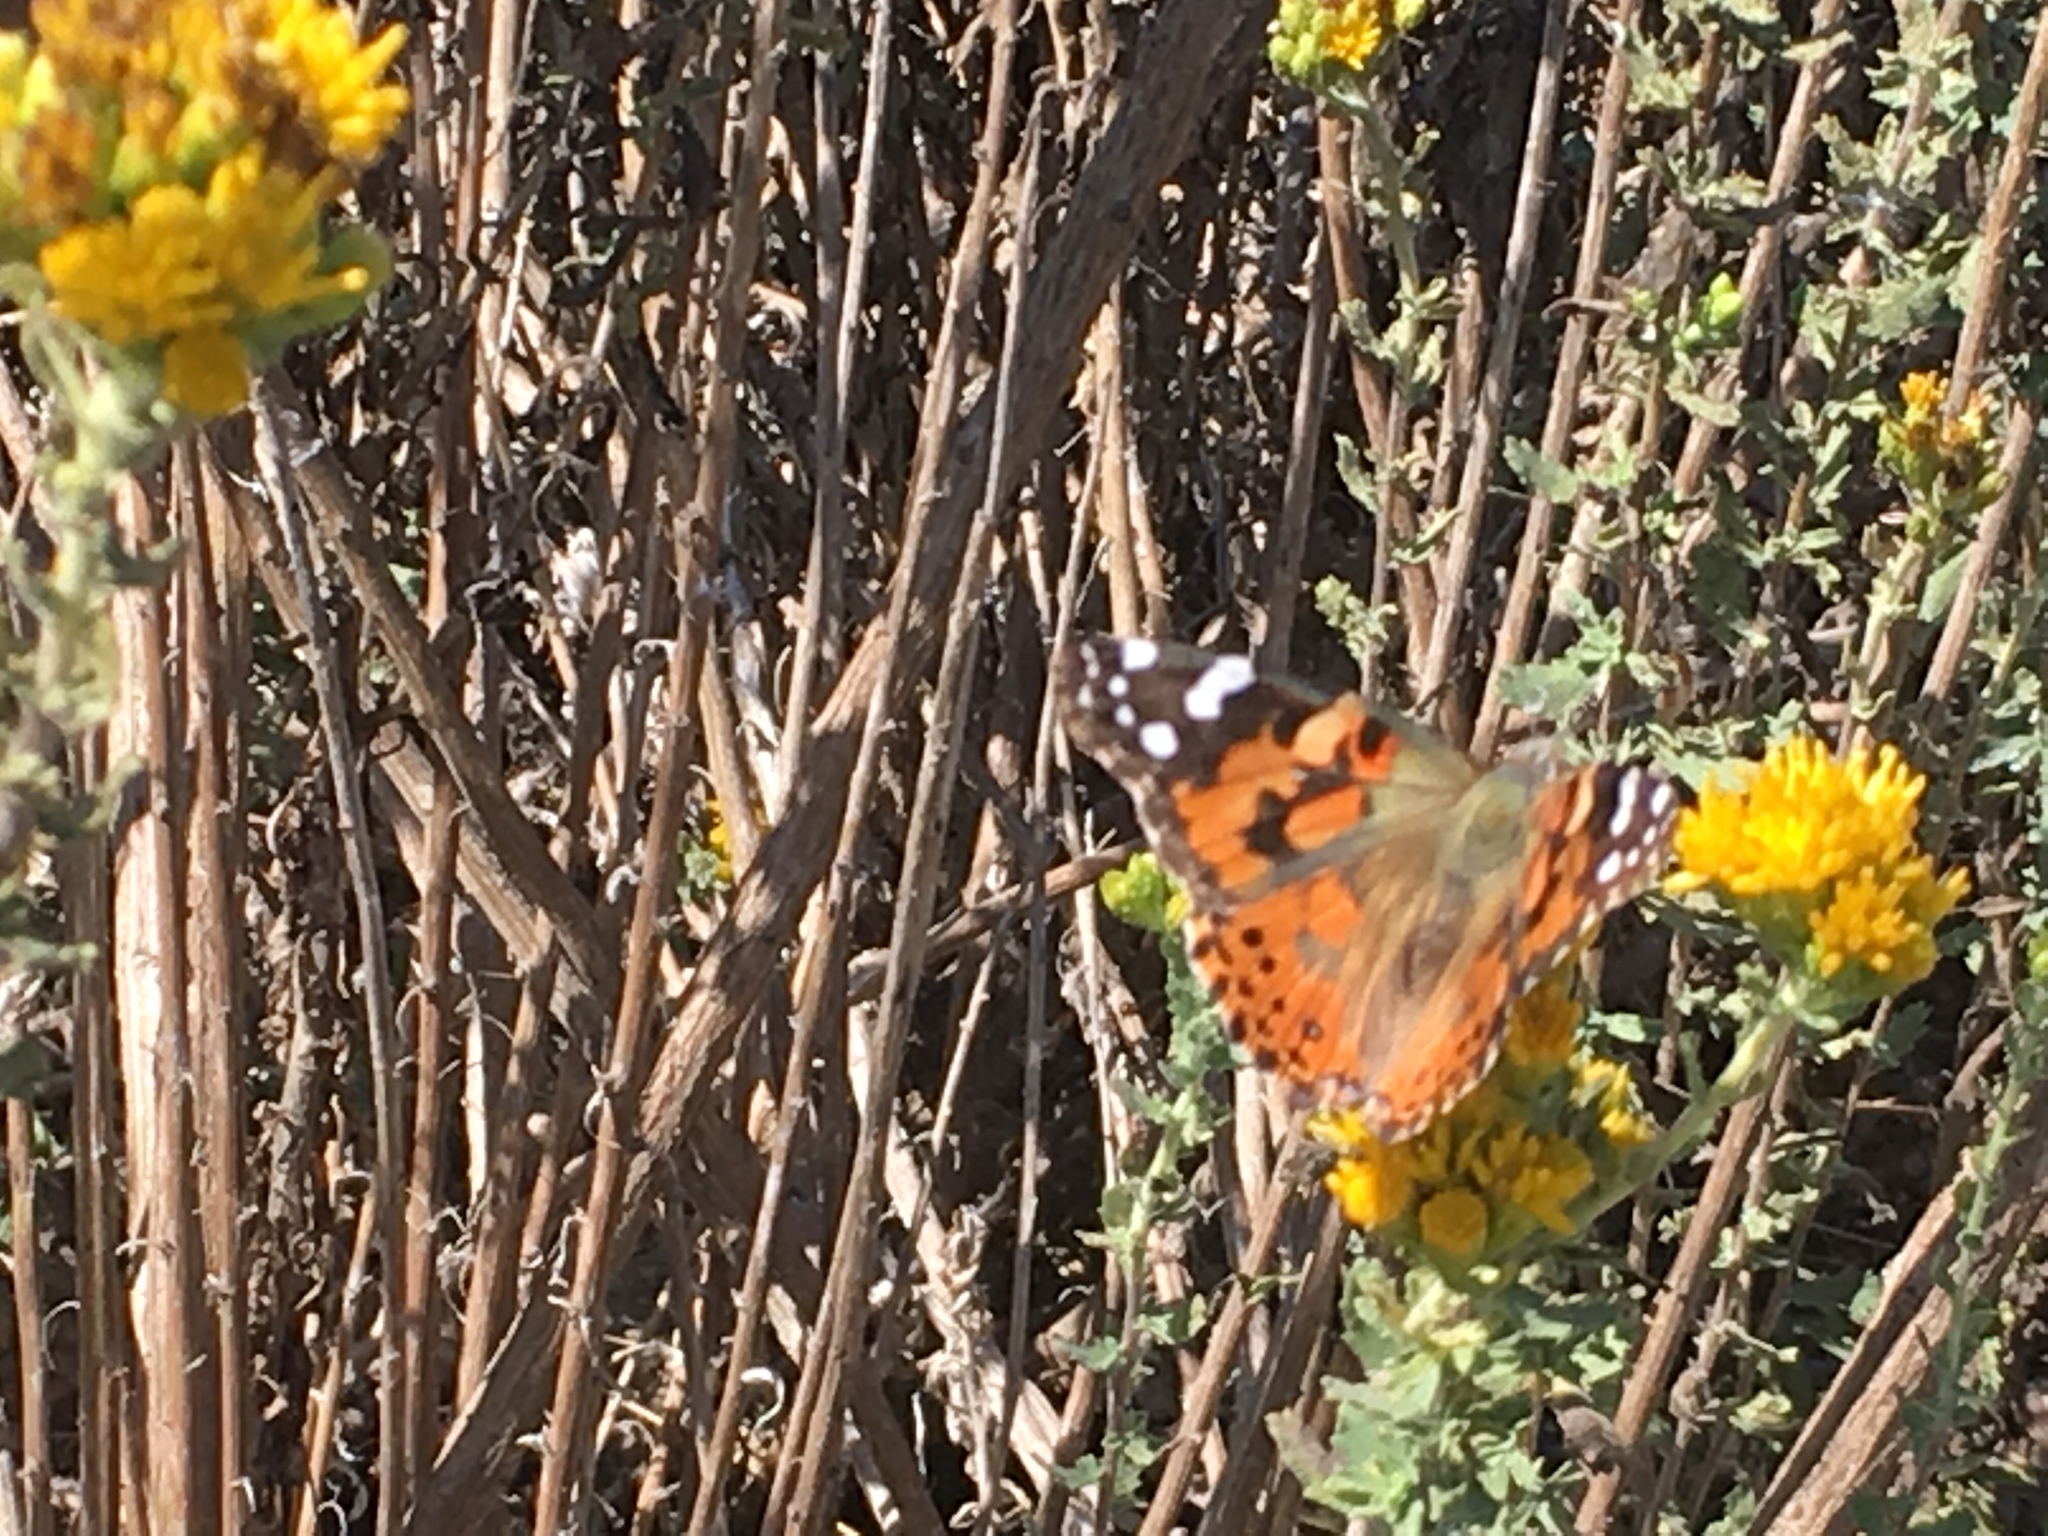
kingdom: Animalia
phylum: Arthropoda
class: Insecta
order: Lepidoptera
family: Nymphalidae
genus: Vanessa
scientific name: Vanessa cardui
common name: Painted lady
